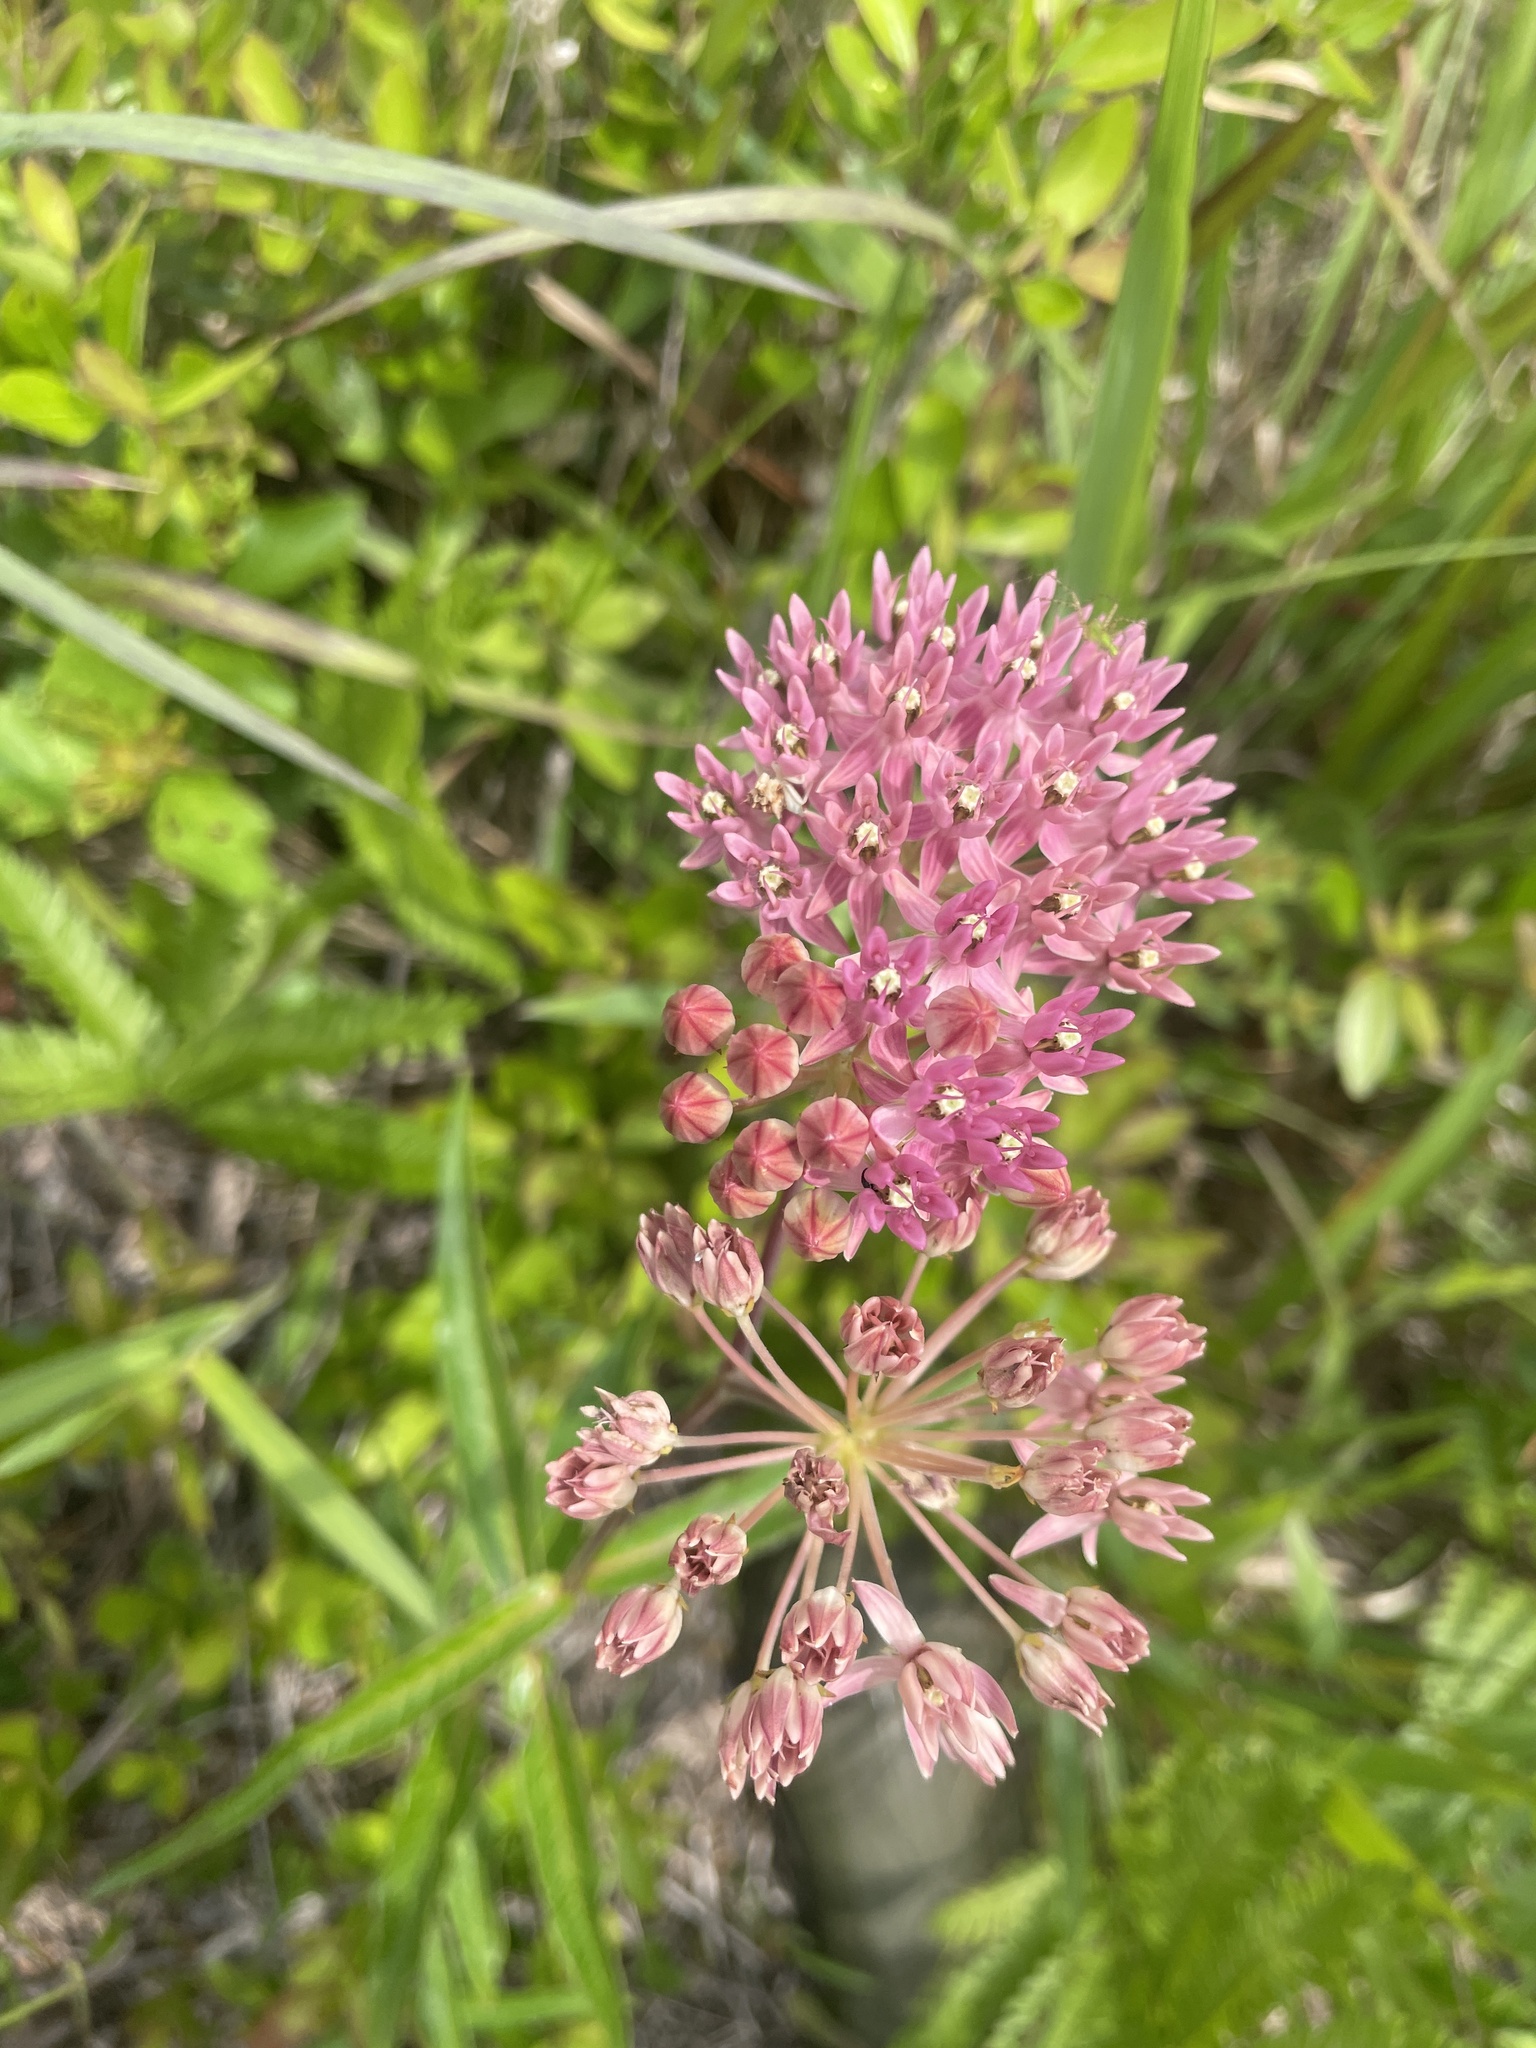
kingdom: Plantae
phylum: Tracheophyta
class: Magnoliopsida
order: Gentianales
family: Apocynaceae
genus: Asclepias
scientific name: Asclepias rubra
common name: Red milkweed
